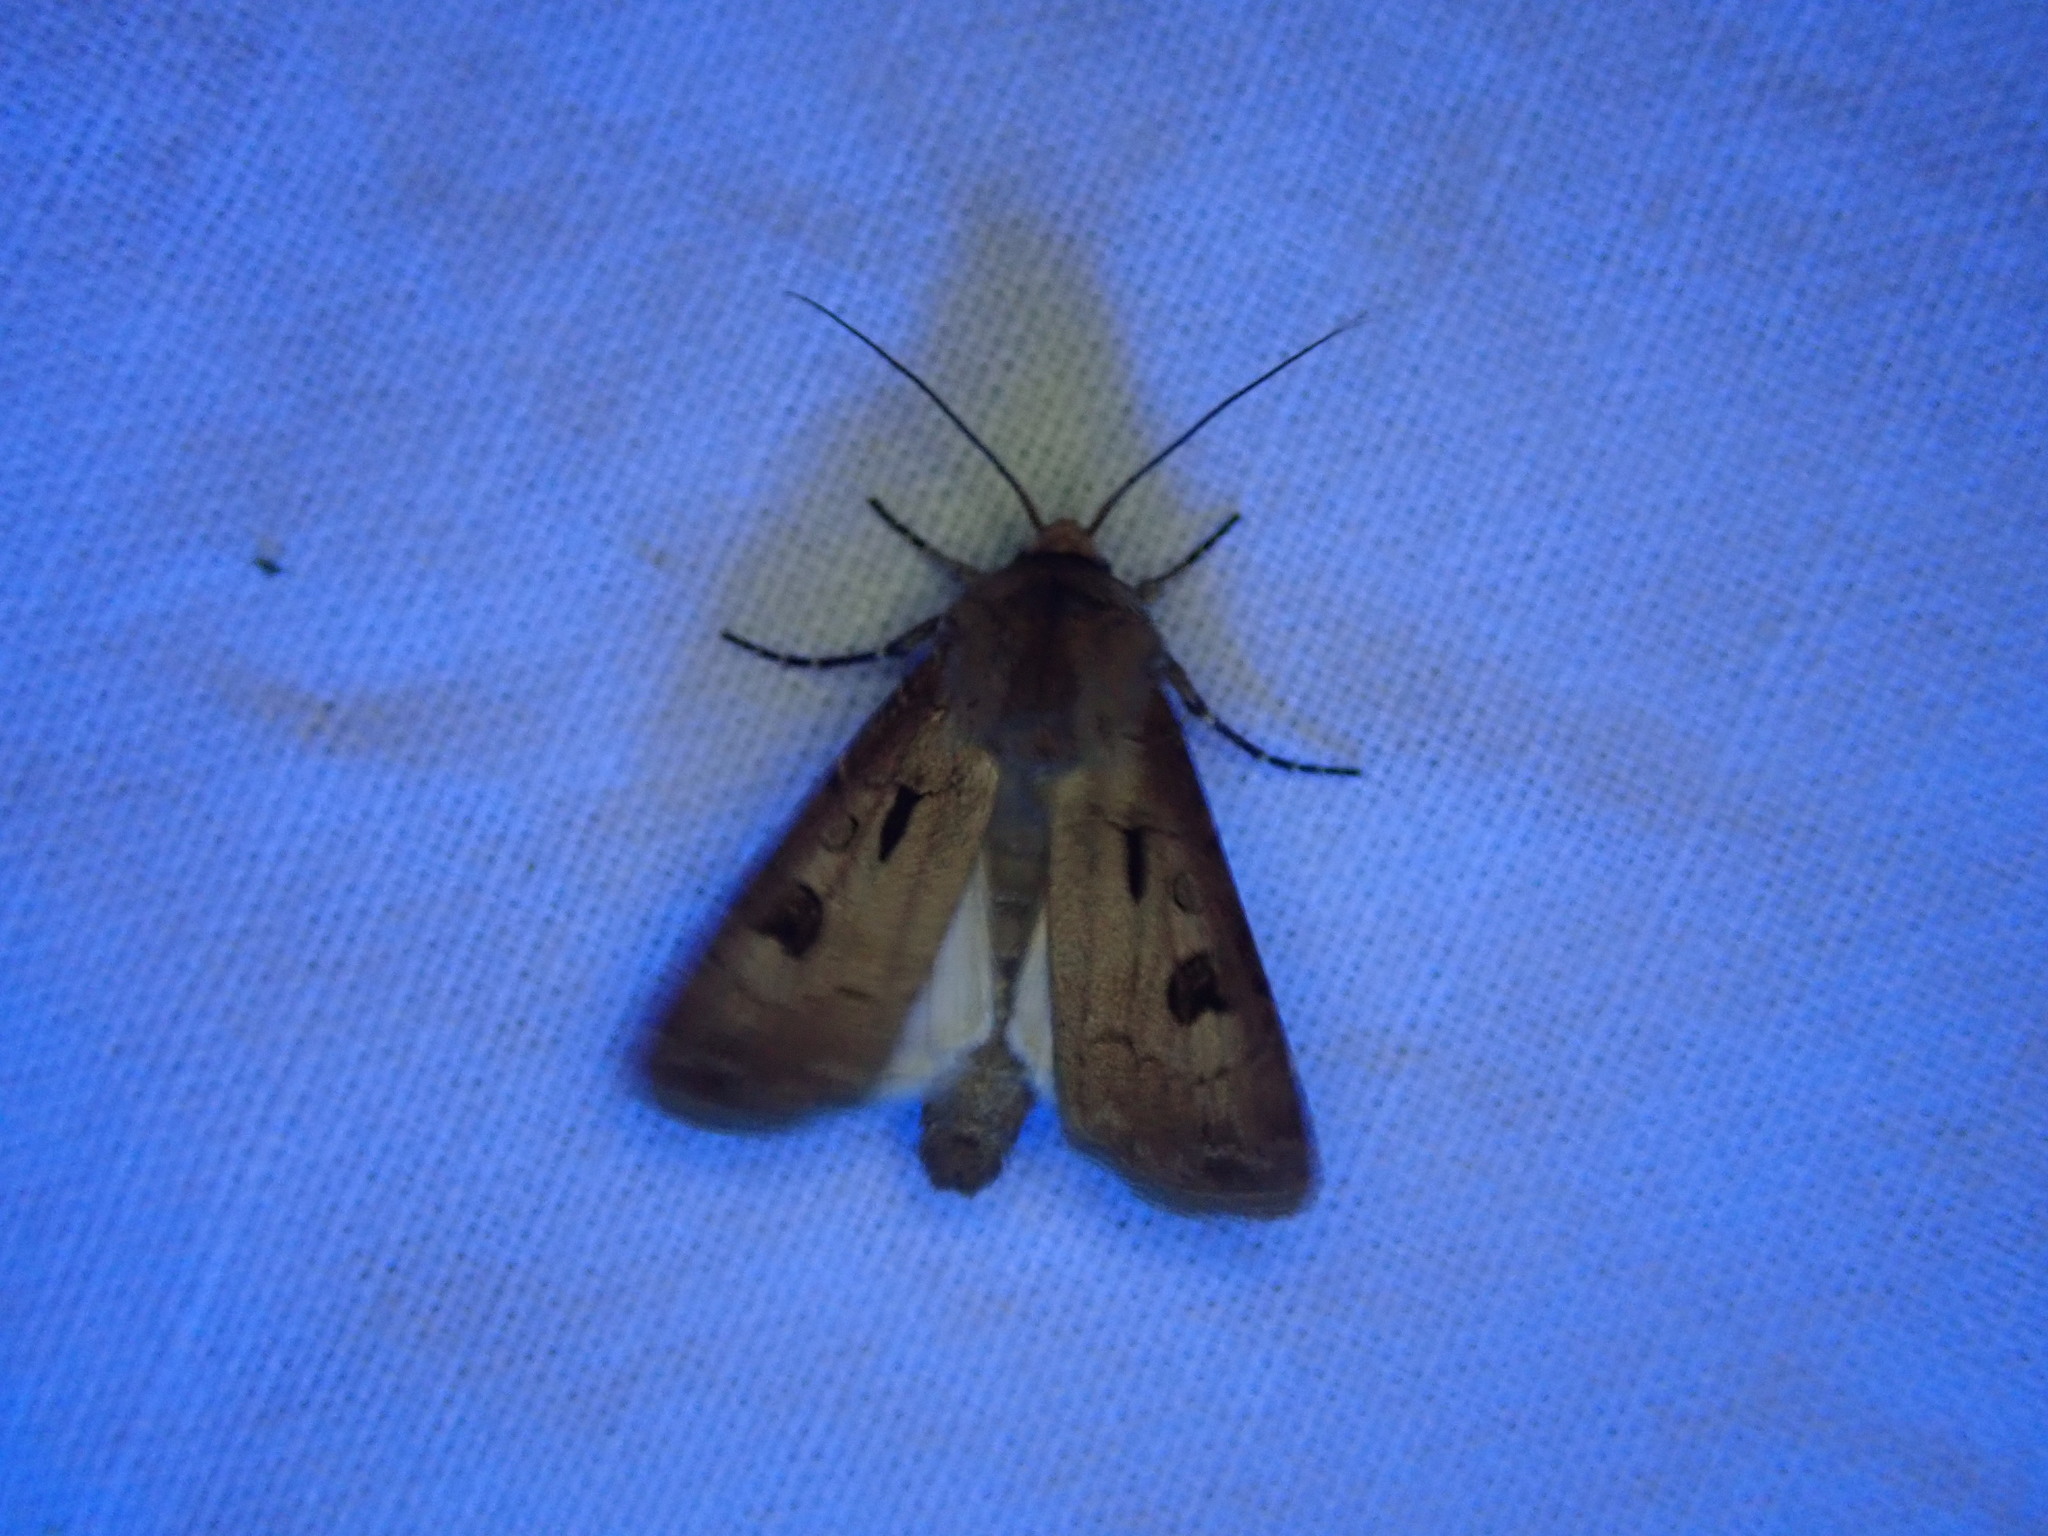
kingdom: Animalia
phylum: Arthropoda
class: Insecta
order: Lepidoptera
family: Noctuidae
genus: Agrotis
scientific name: Agrotis exclamationis
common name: Heart and dart
